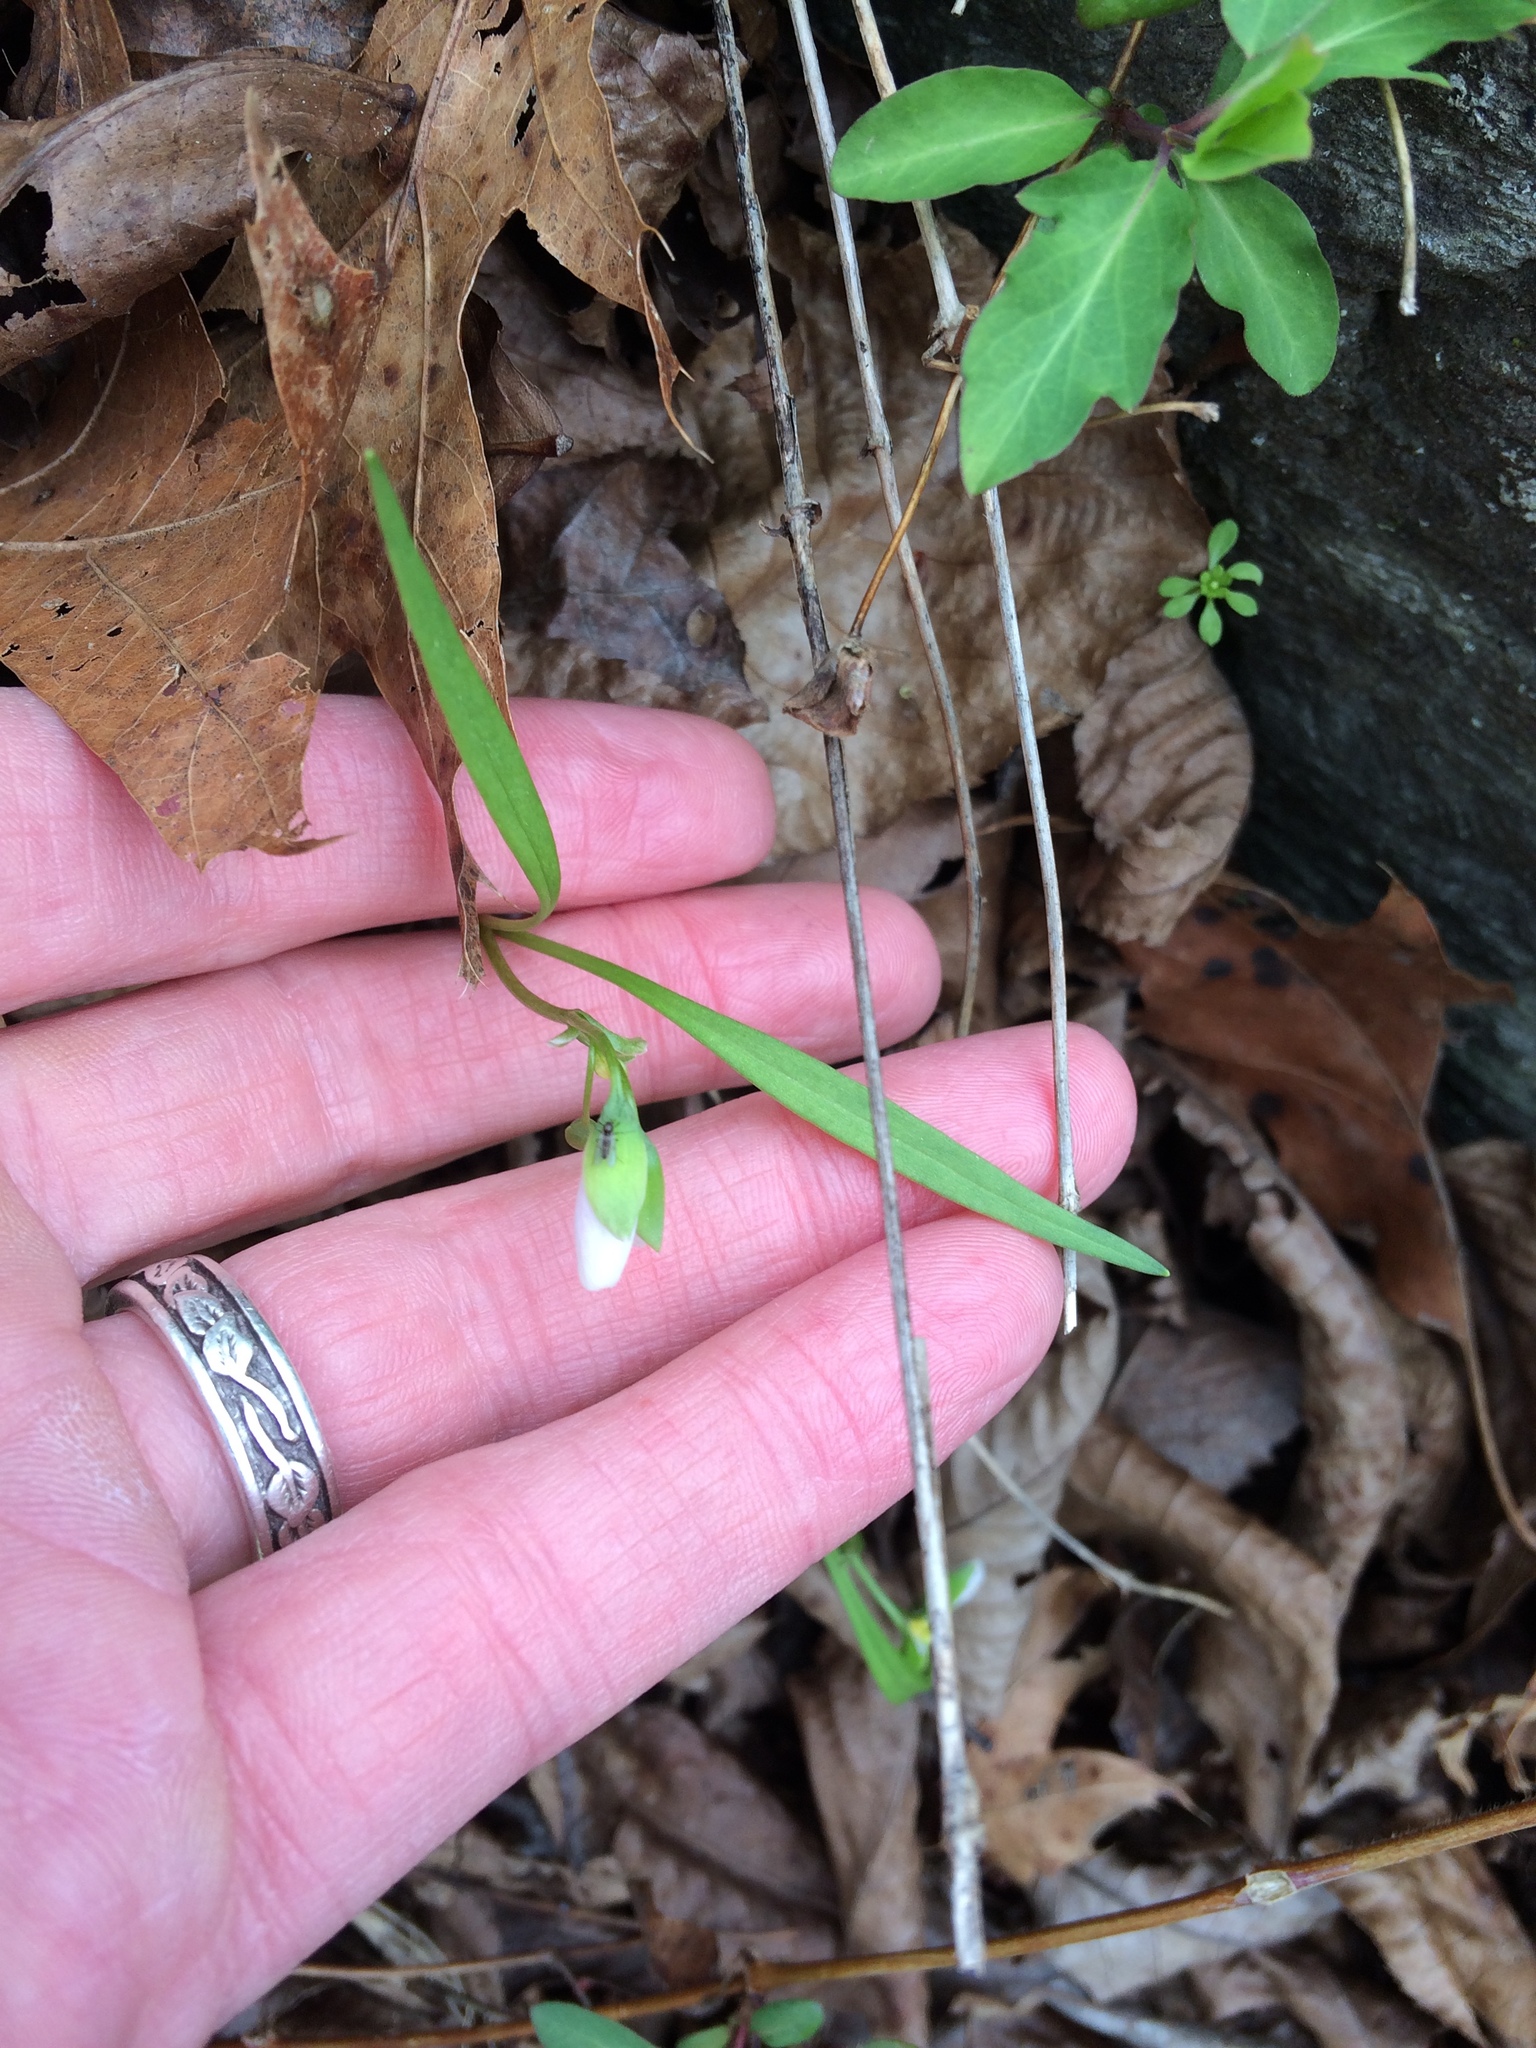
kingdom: Plantae
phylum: Tracheophyta
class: Magnoliopsida
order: Caryophyllales
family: Montiaceae
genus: Claytonia
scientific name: Claytonia virginica
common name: Virginia springbeauty
